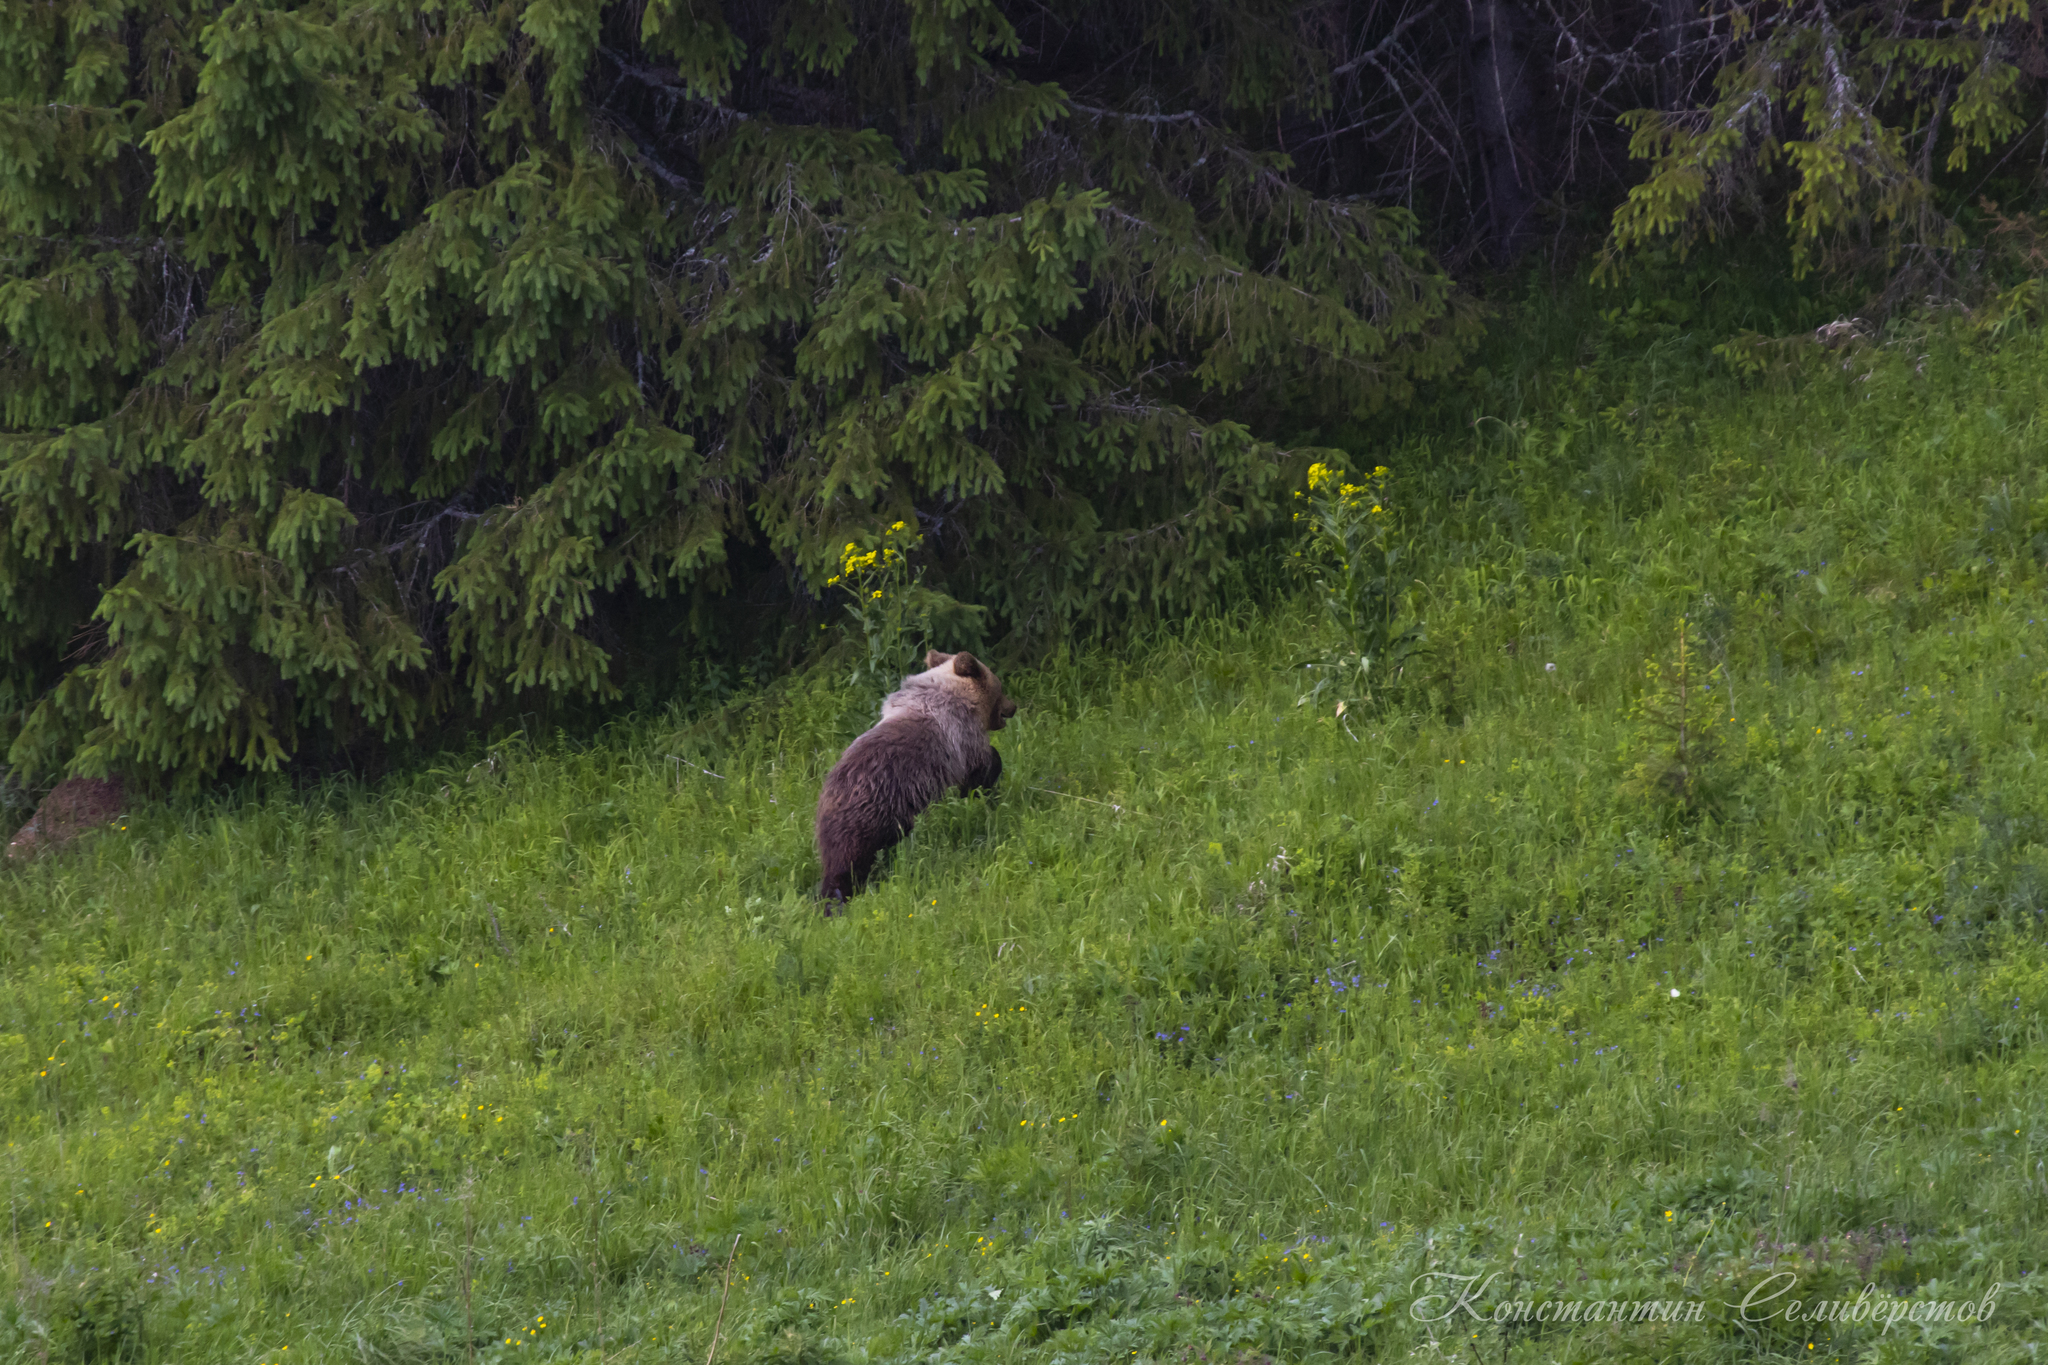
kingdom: Animalia
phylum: Chordata
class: Mammalia
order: Carnivora
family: Ursidae
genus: Ursus
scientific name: Ursus arctos
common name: Brown bear
